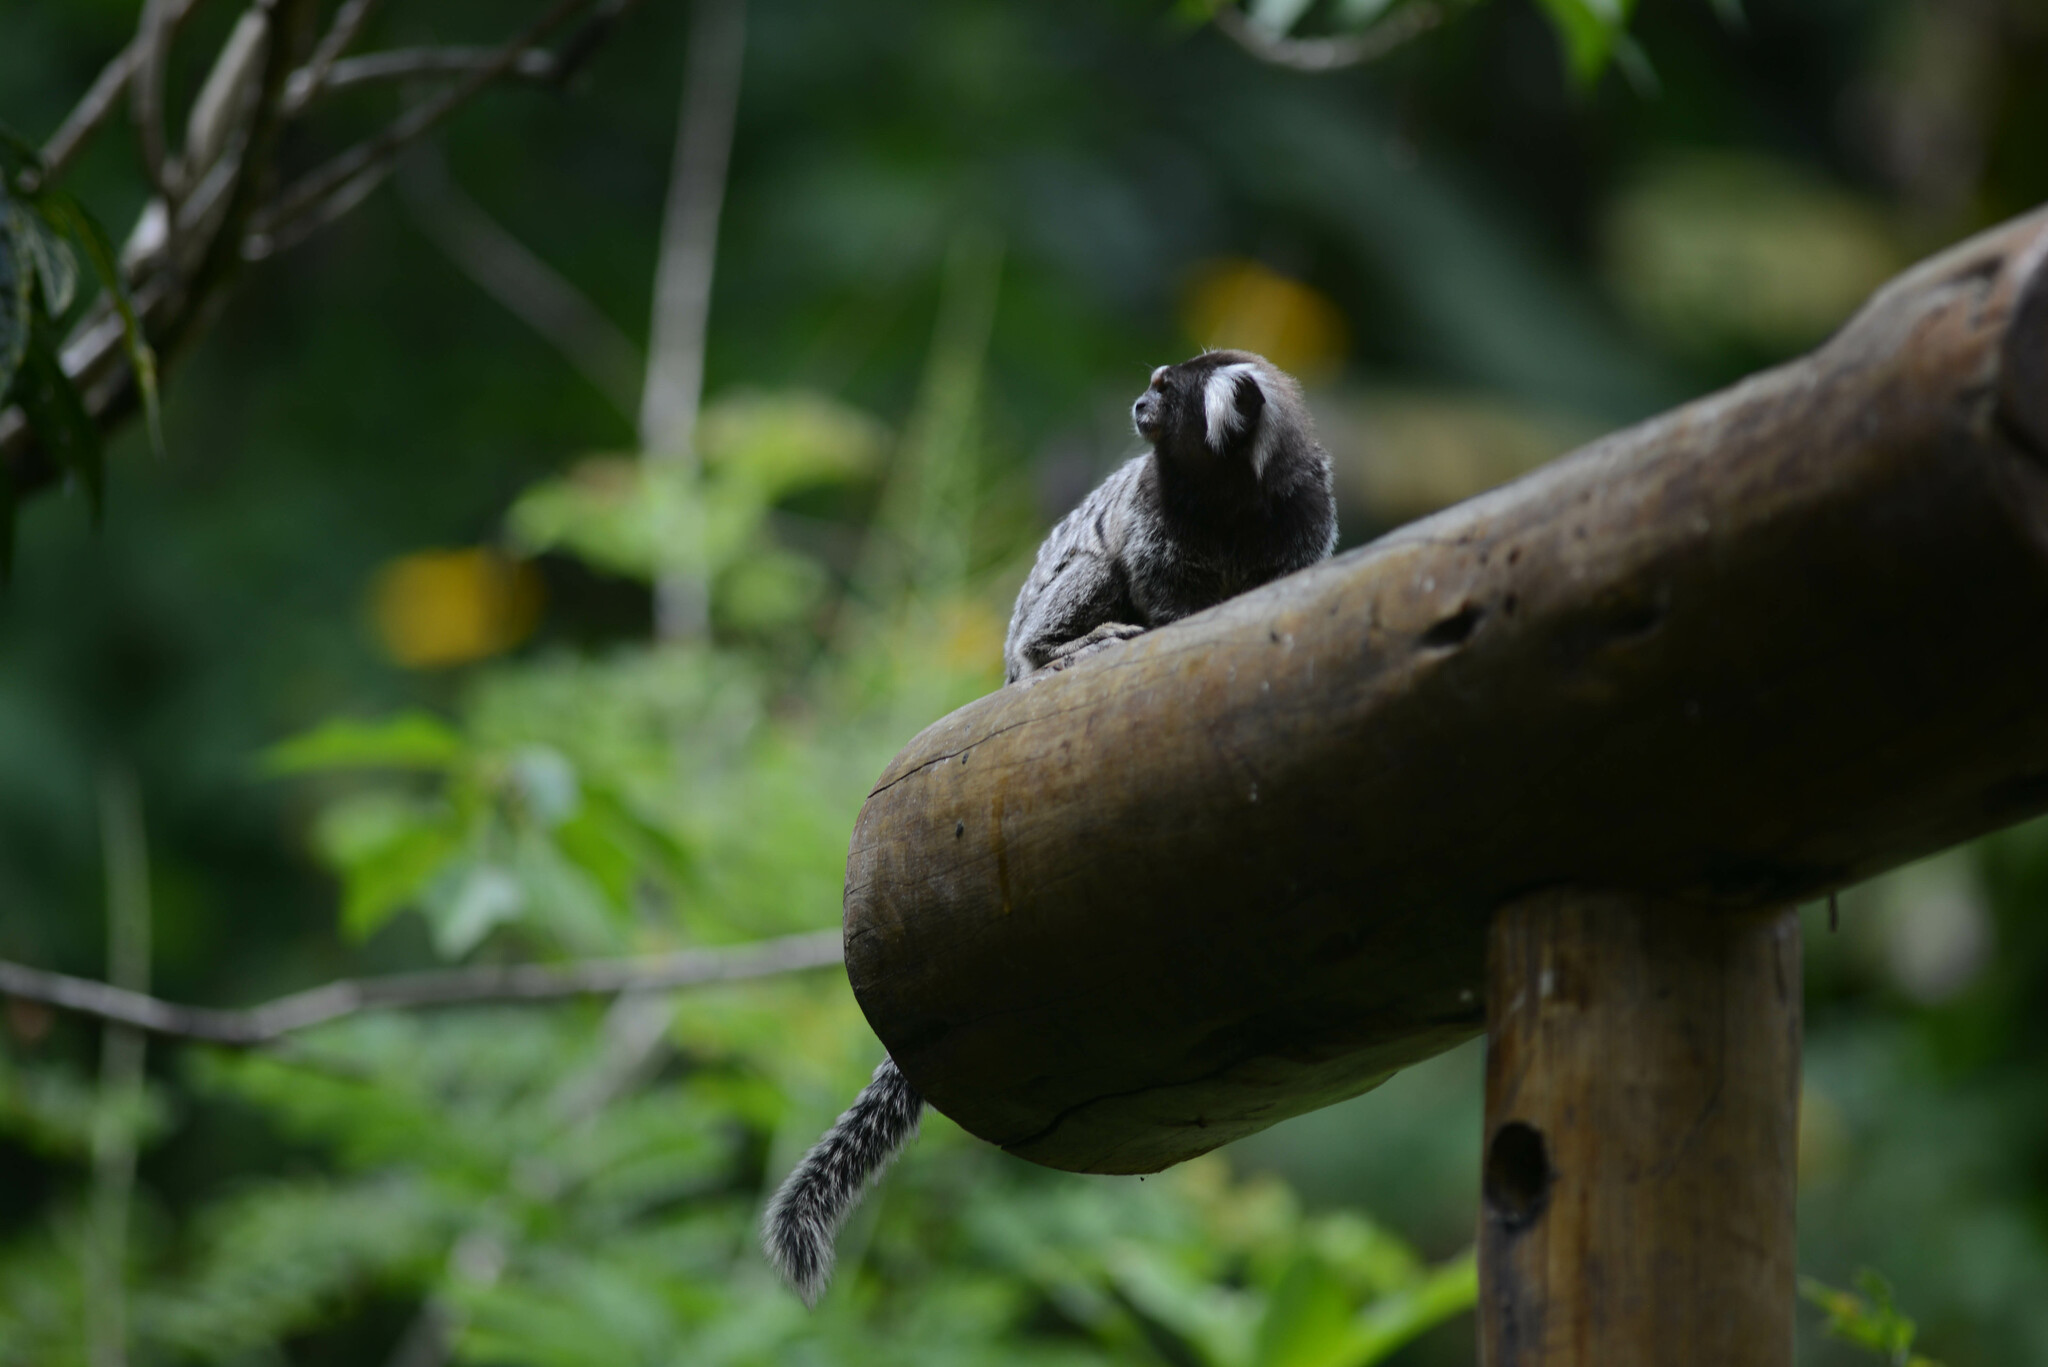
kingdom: Animalia
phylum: Chordata
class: Mammalia
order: Primates
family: Callitrichidae
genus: Callithrix
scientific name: Callithrix jacchus
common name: Common marmoset
